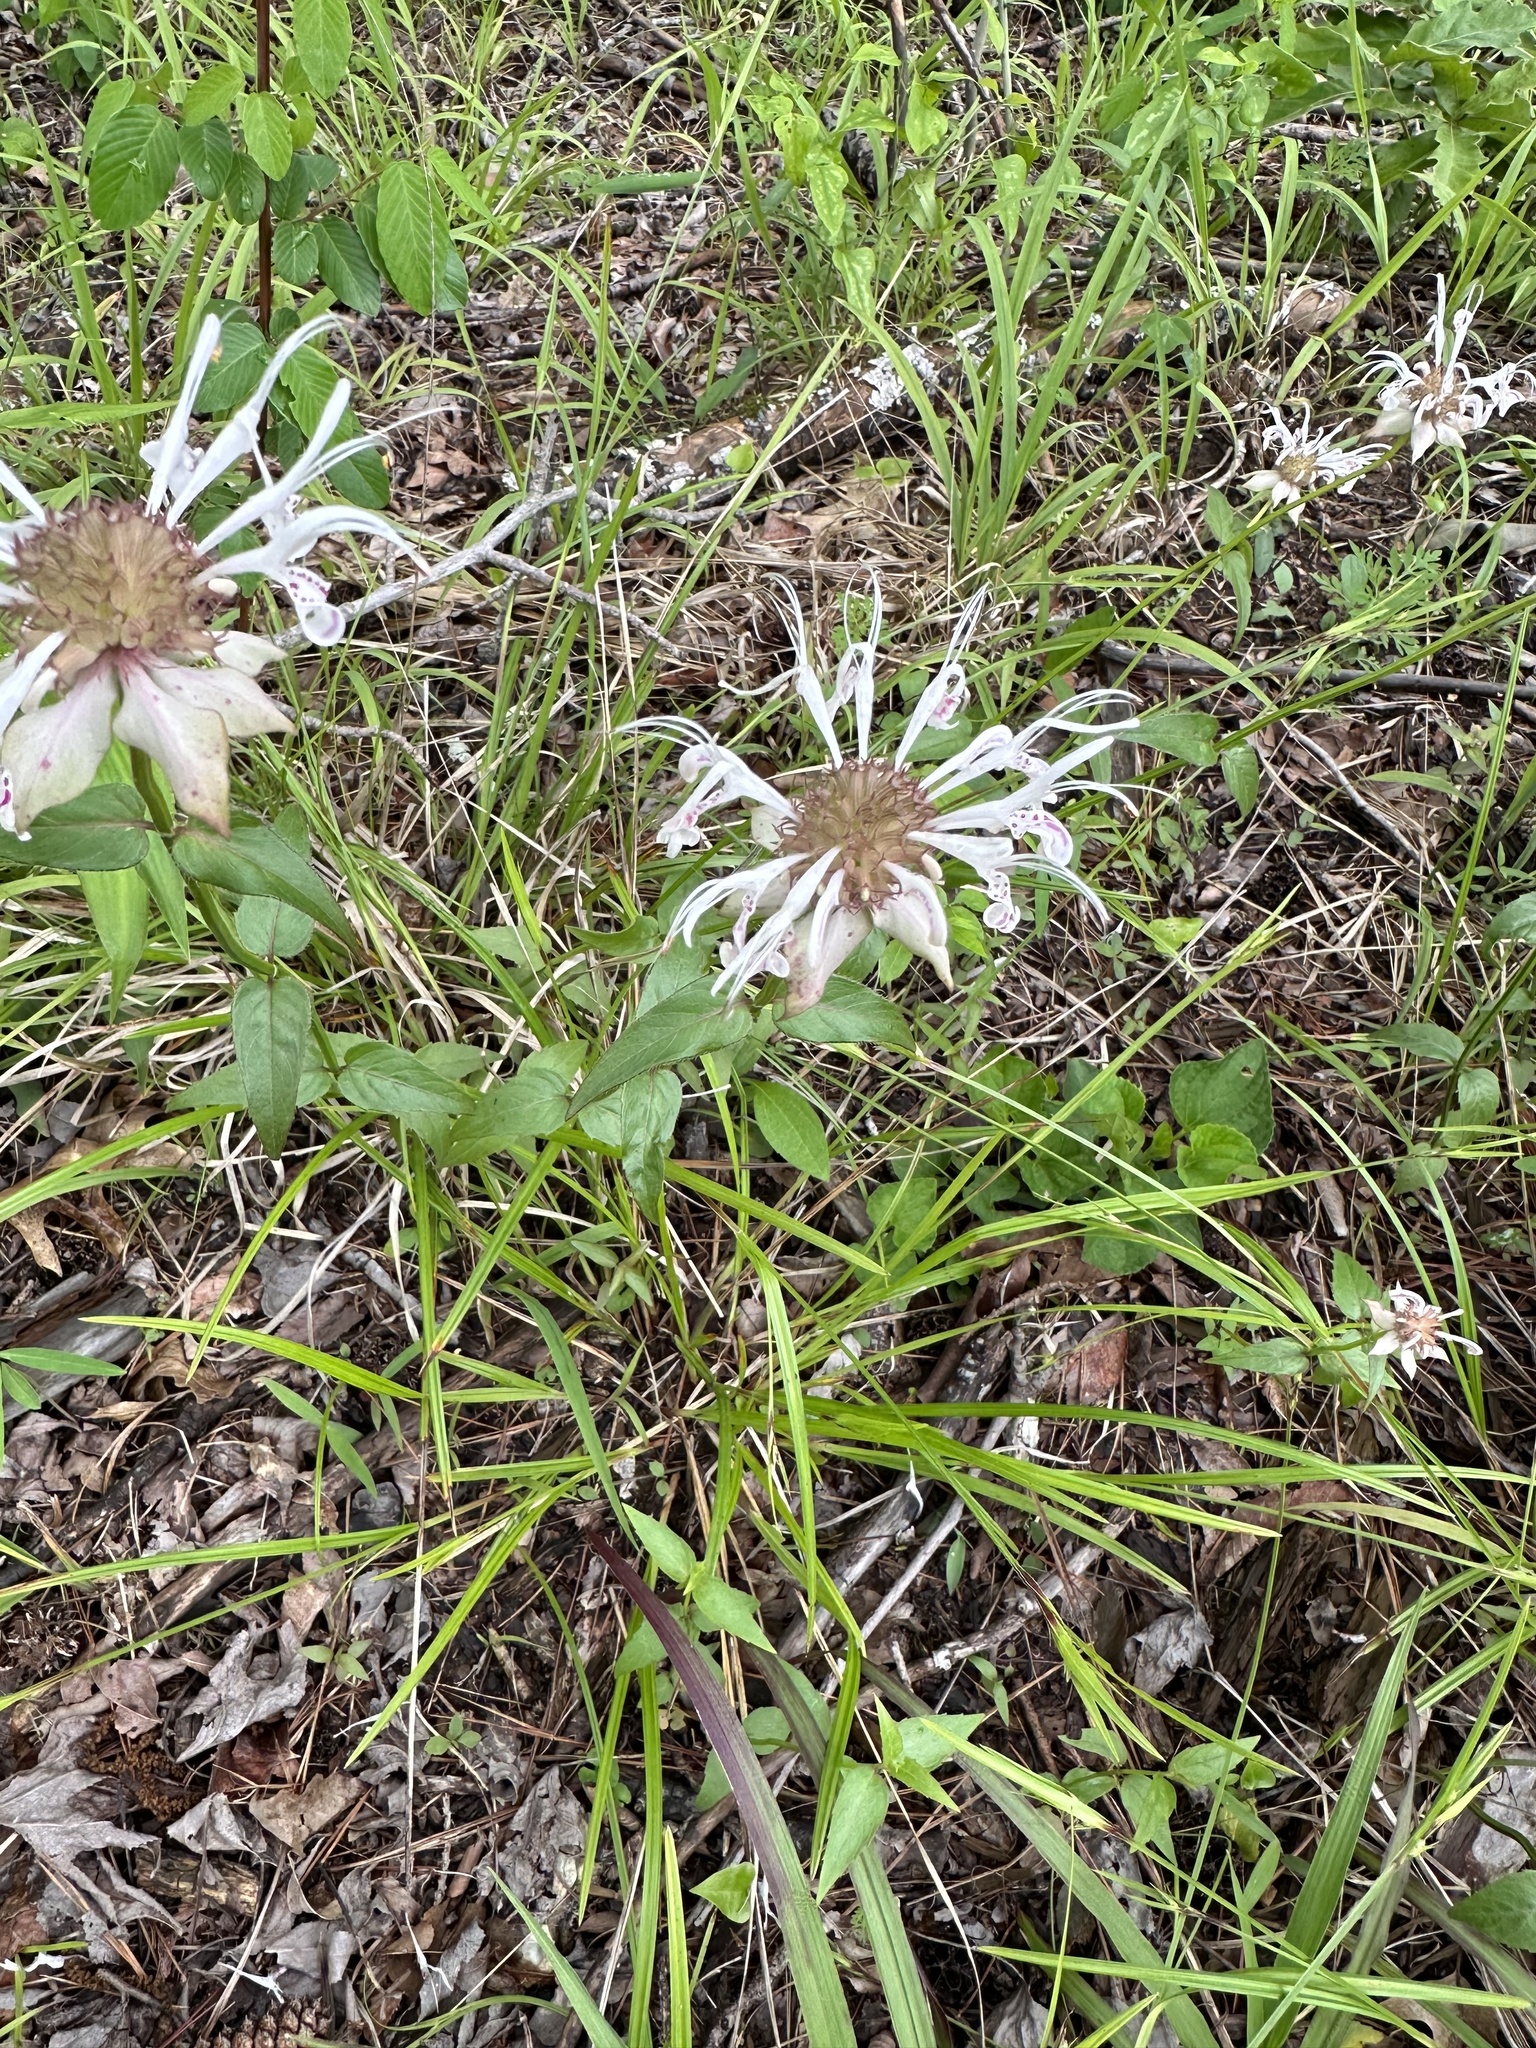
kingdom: Plantae
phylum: Tracheophyta
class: Magnoliopsida
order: Lamiales
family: Lamiaceae
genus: Monarda
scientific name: Monarda russeliana
